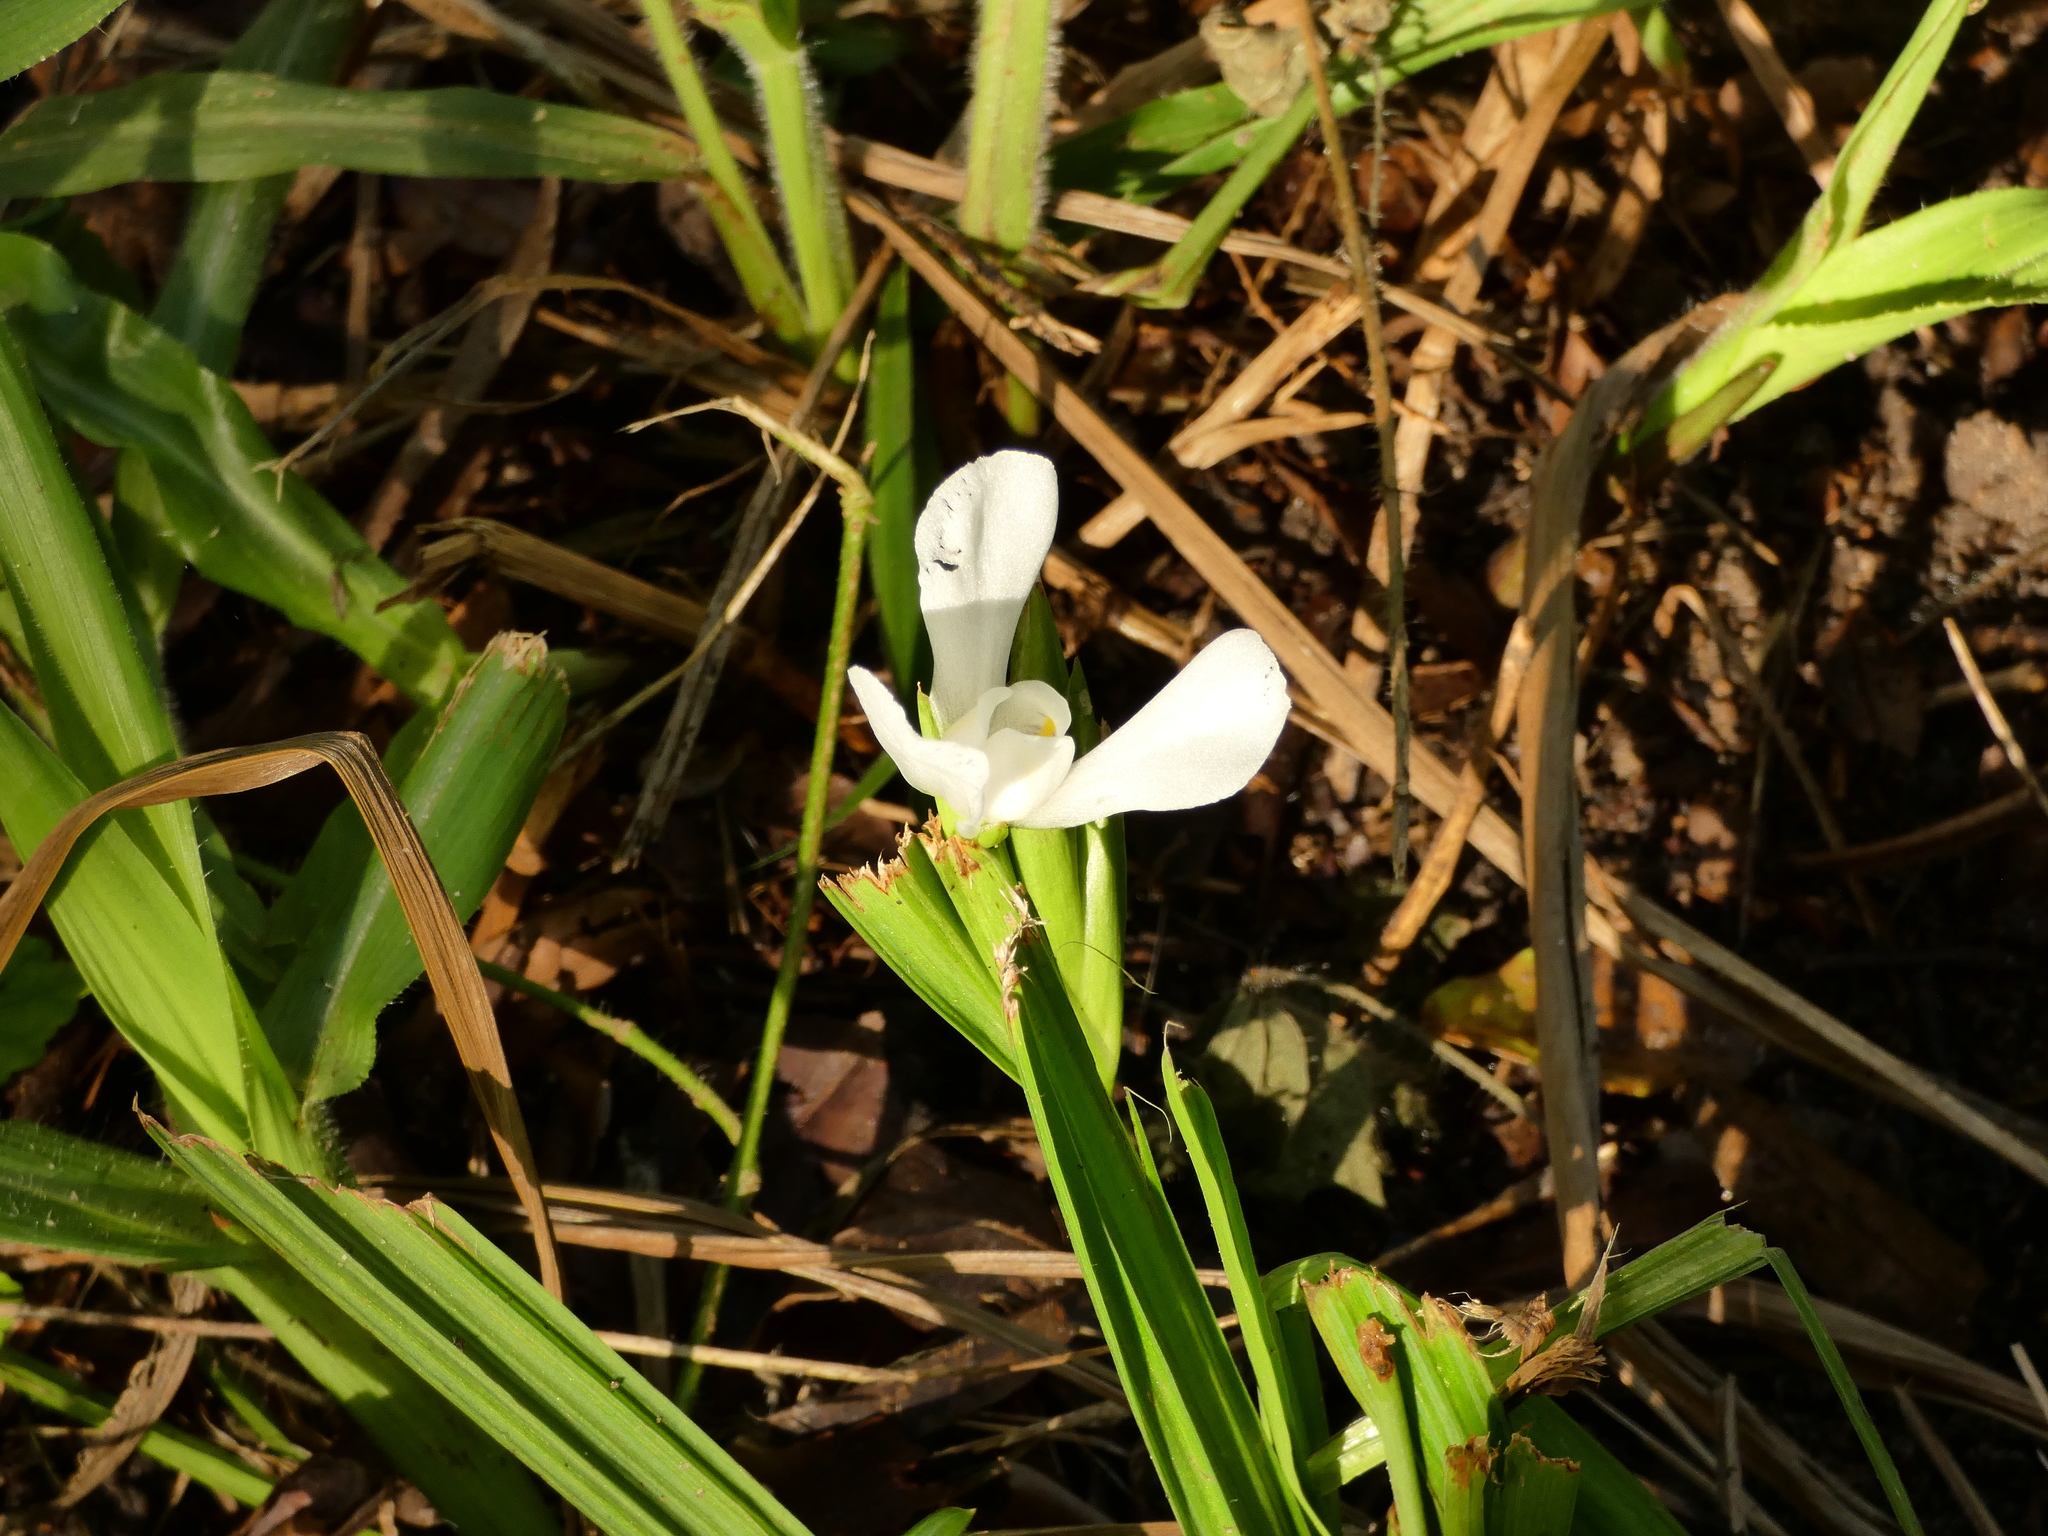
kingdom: Plantae
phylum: Tracheophyta
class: Liliopsida
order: Asparagales
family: Iridaceae
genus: Cipura
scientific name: Cipura paludosa
